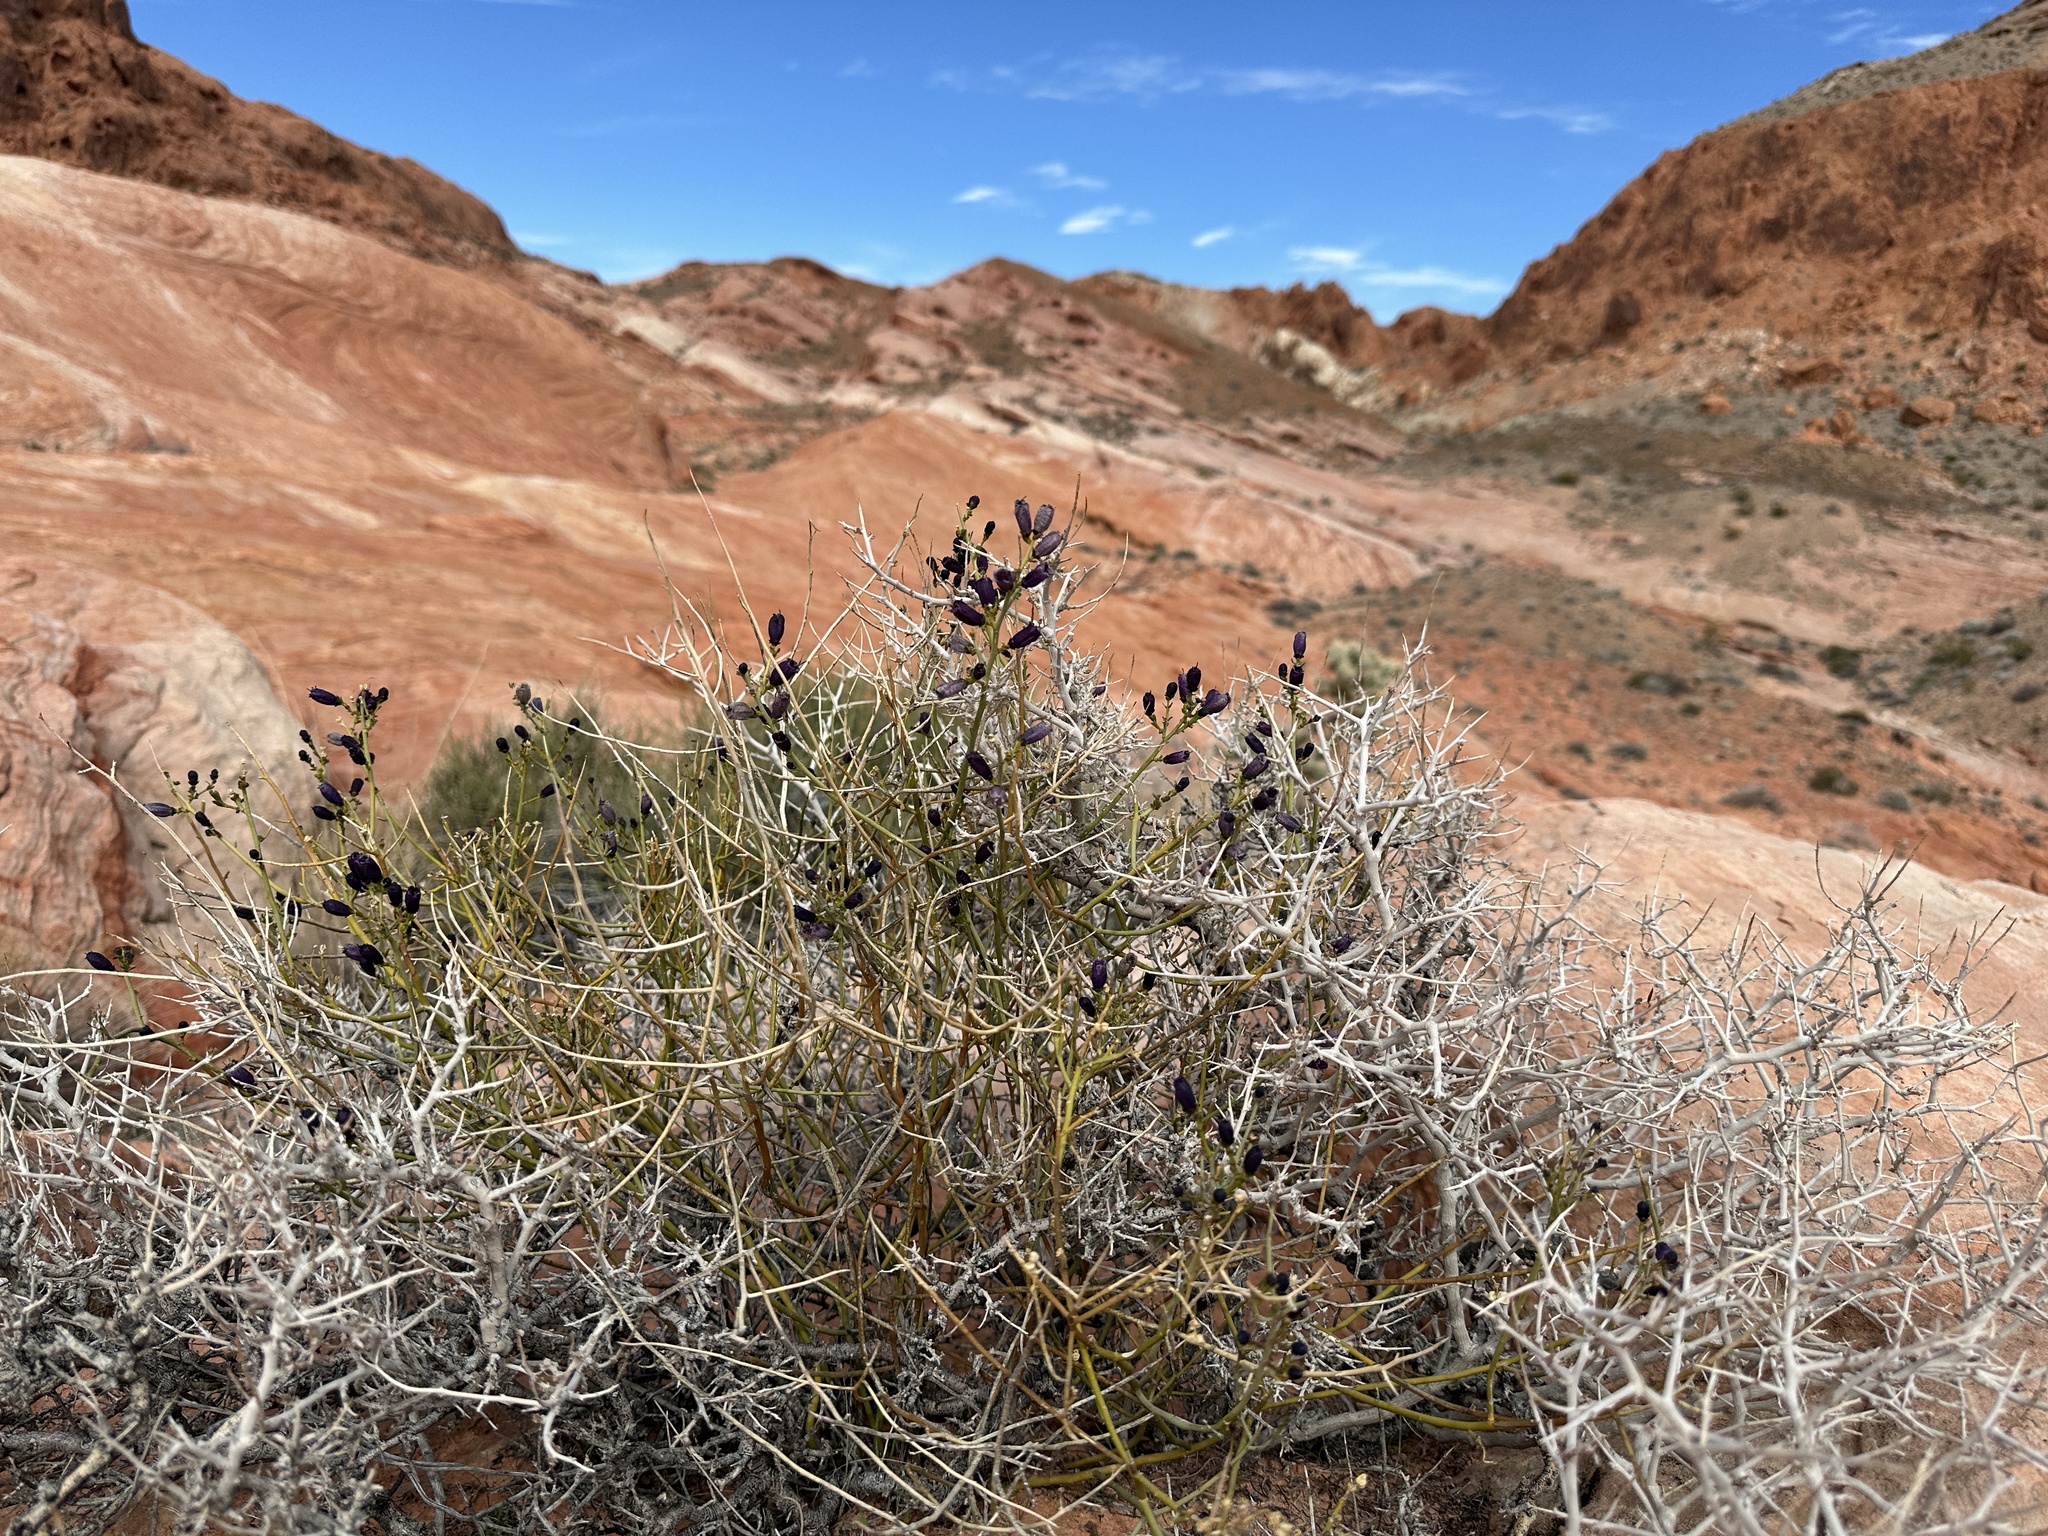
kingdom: Plantae
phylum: Tracheophyta
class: Magnoliopsida
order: Sapindales
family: Rutaceae
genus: Thamnosma
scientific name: Thamnosma montana
